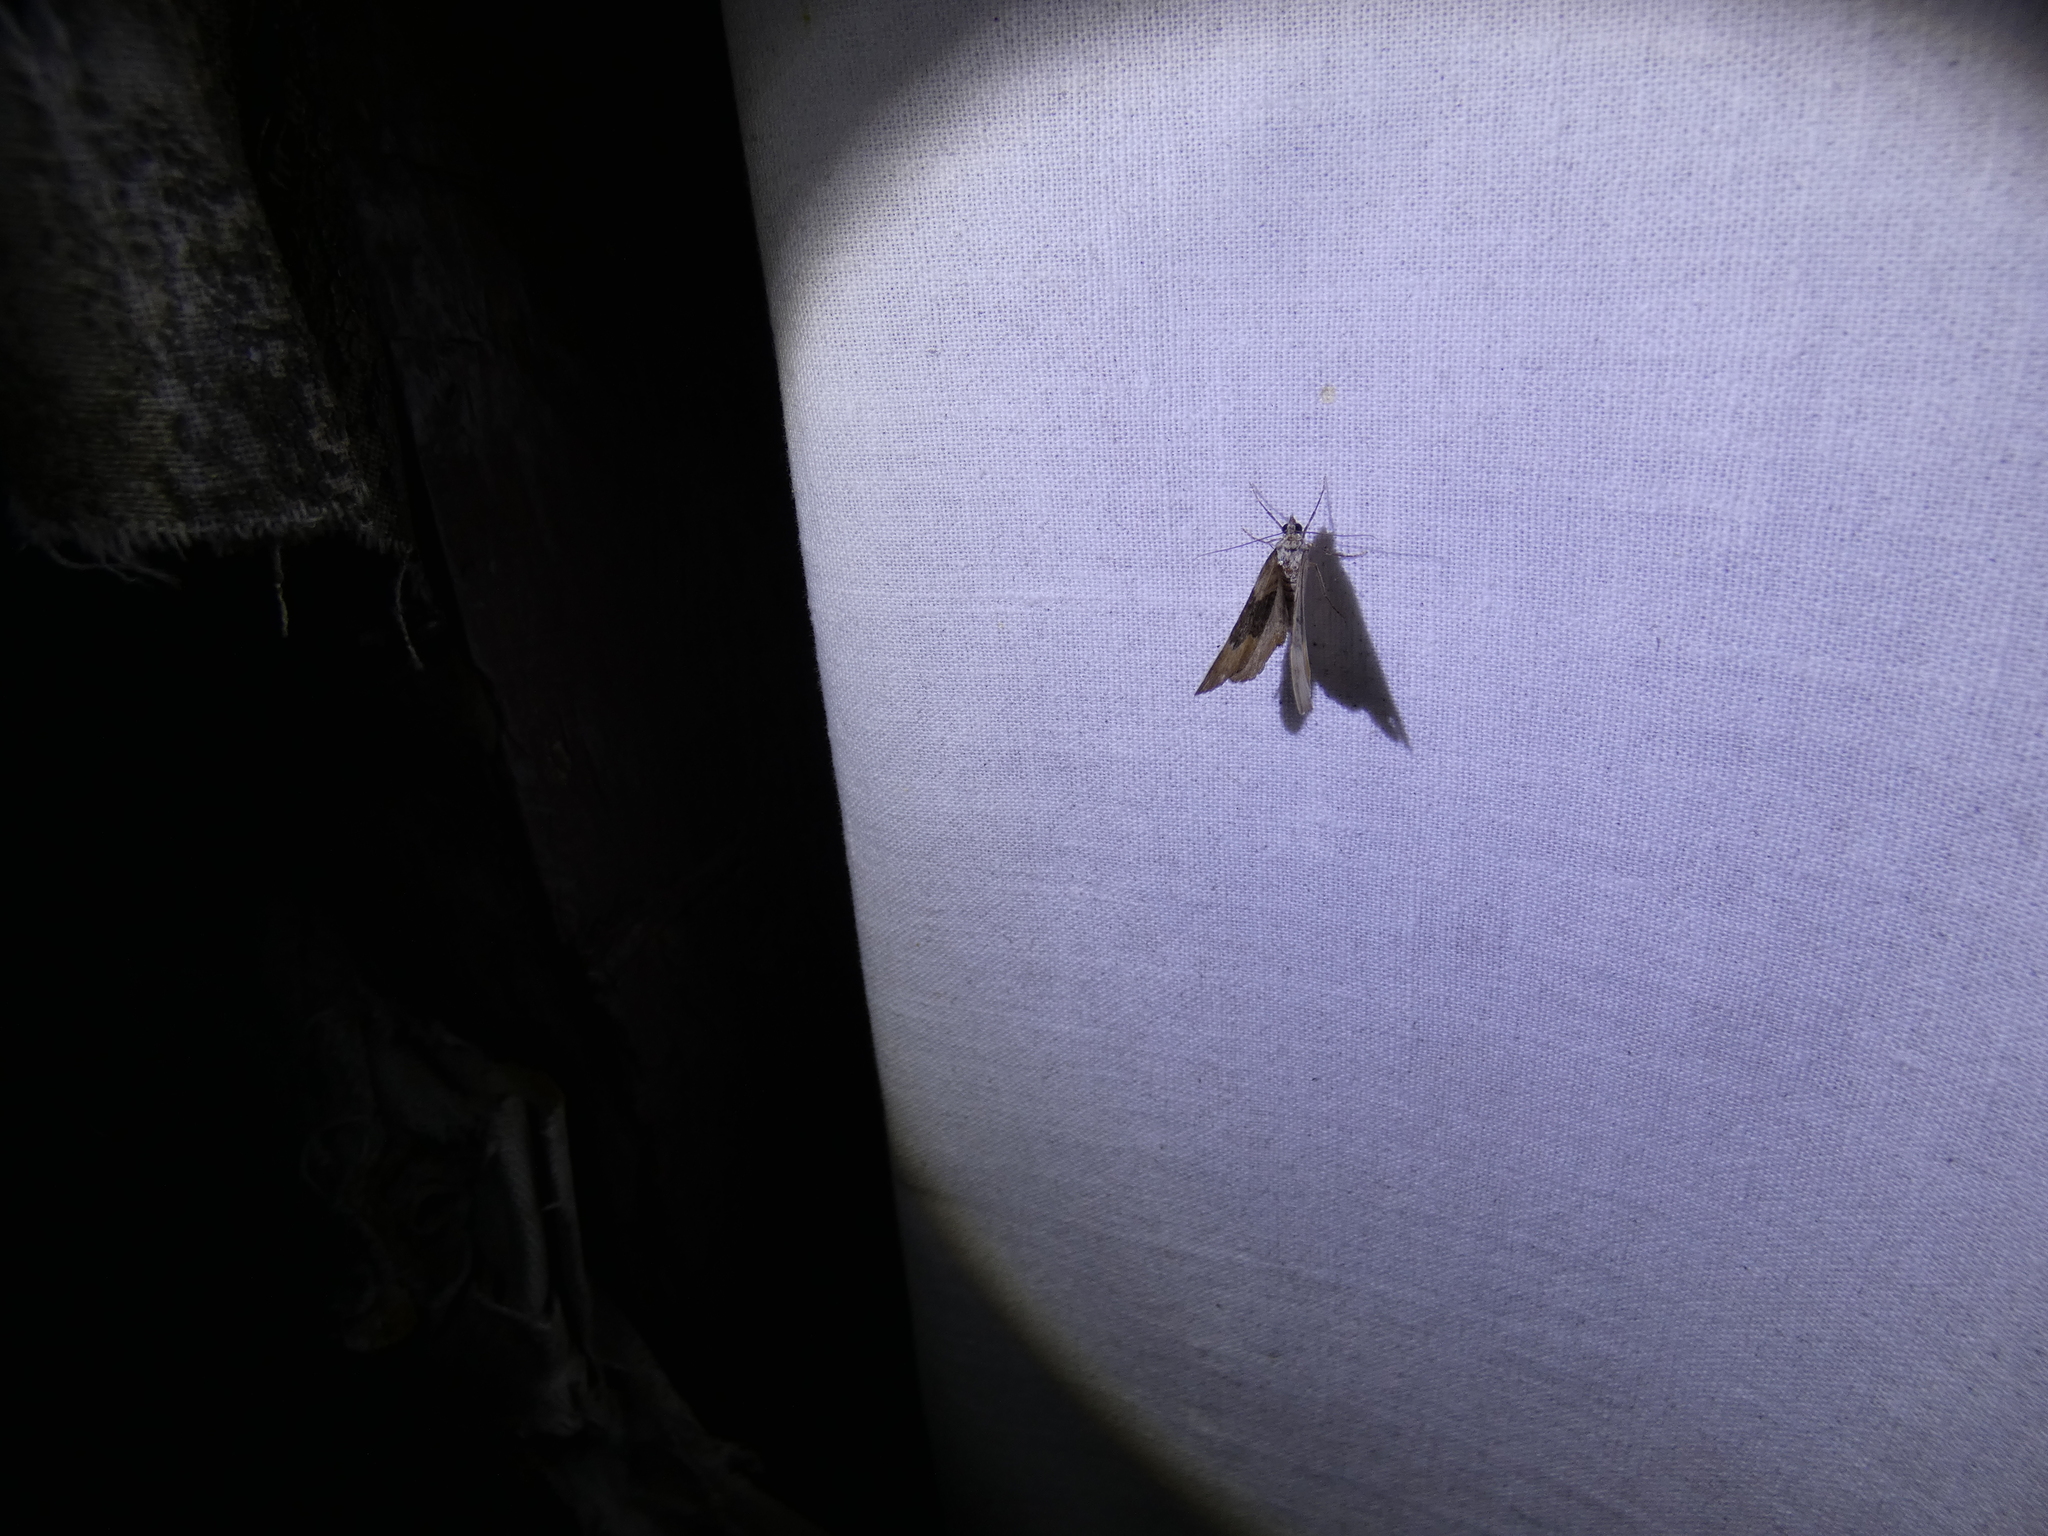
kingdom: Animalia
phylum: Arthropoda
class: Insecta
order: Lepidoptera
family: Geometridae
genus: Xanthorhoe
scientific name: Xanthorhoe quadrifasiata
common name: Large twin-spot carpet
